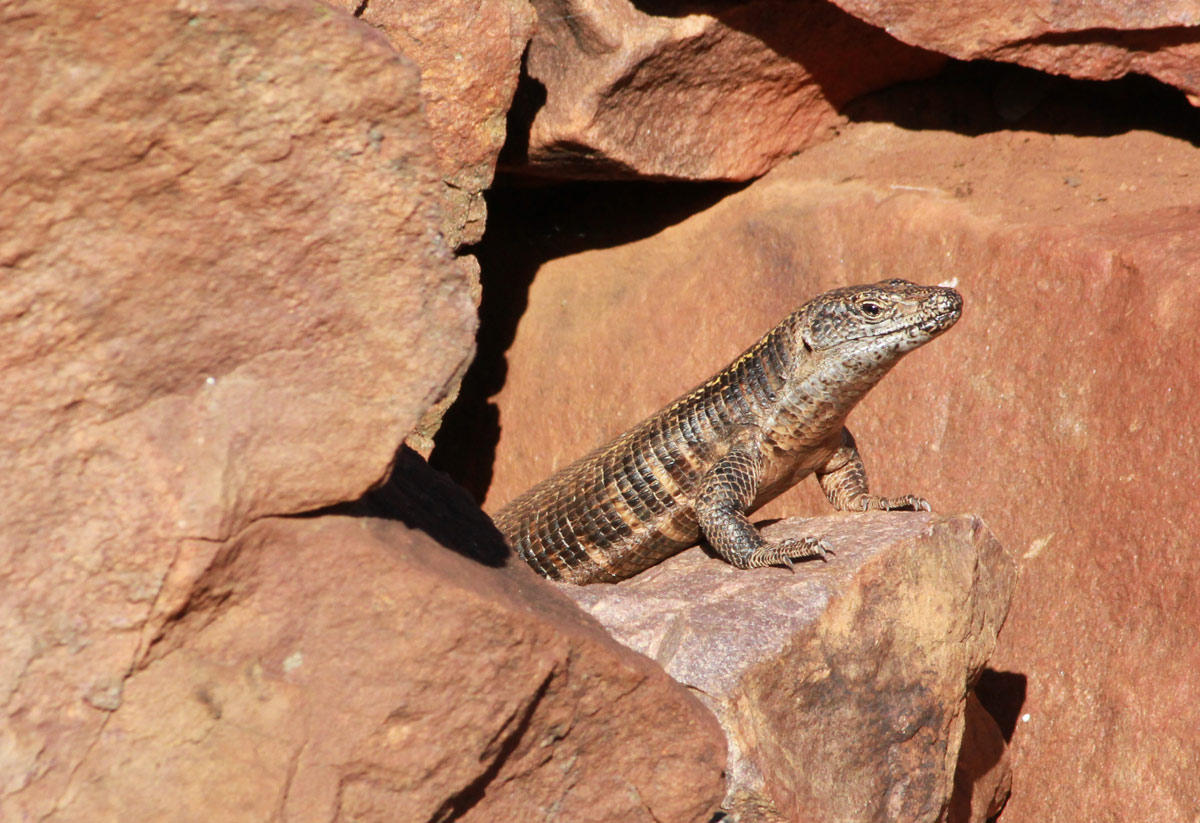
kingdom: Animalia
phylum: Chordata
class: Squamata
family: Gerrhosauridae
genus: Matobosaurus
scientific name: Matobosaurus validus
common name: Common giant plated lizard
